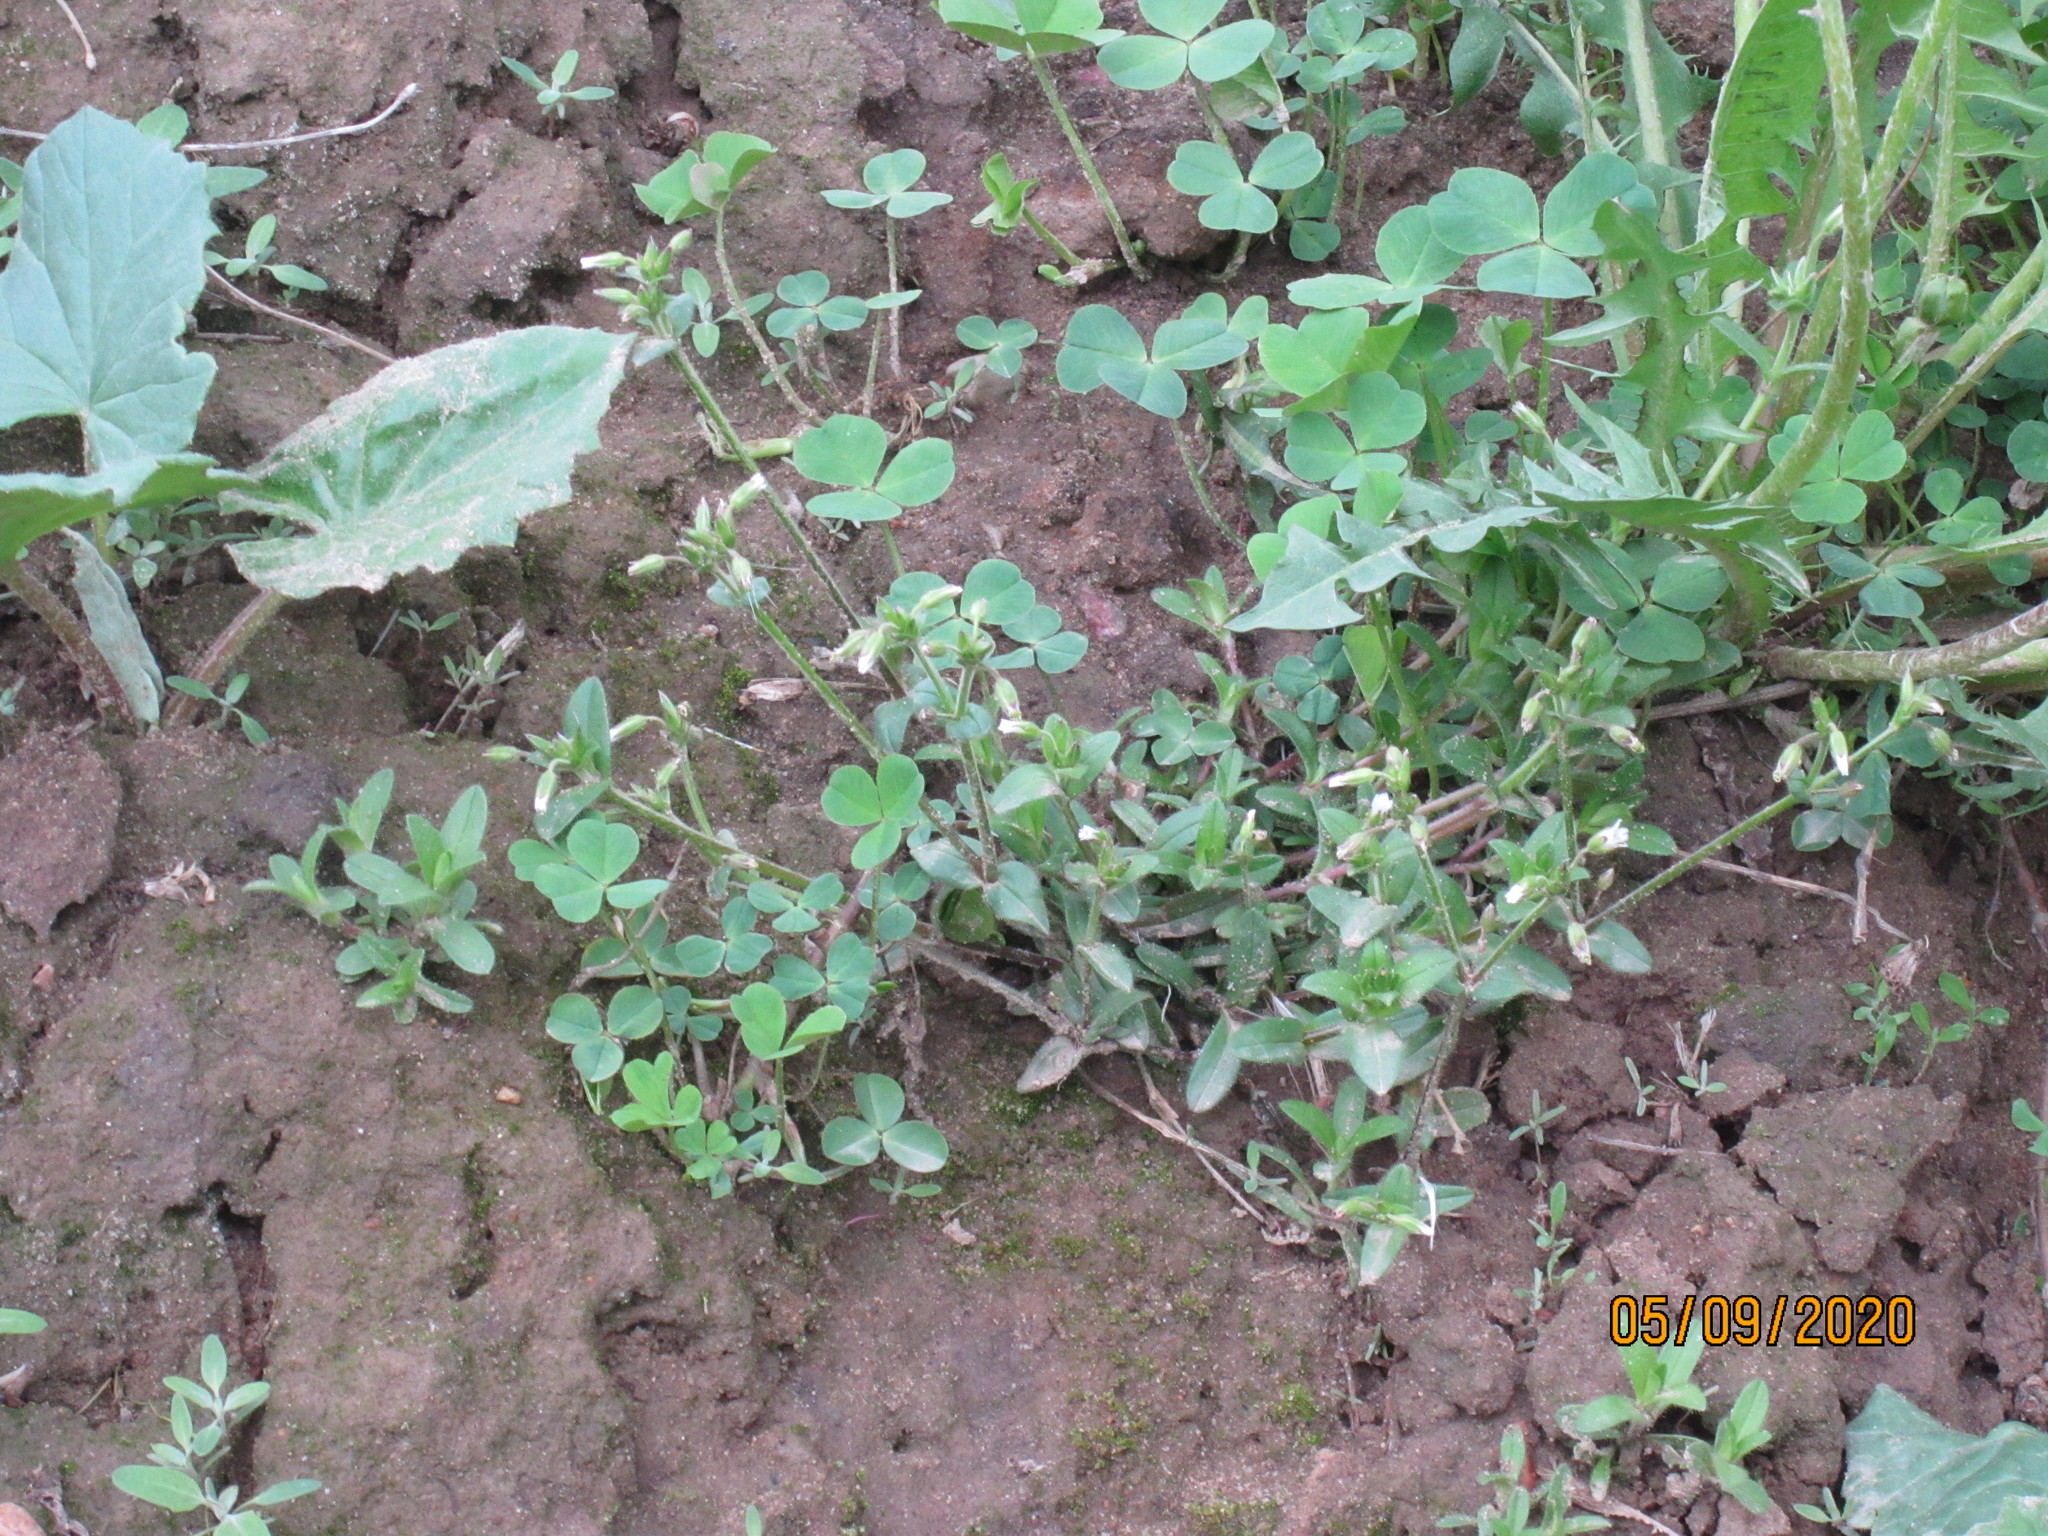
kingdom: Plantae
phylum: Tracheophyta
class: Magnoliopsida
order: Caryophyllales
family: Caryophyllaceae
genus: Cerastium
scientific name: Cerastium holosteoides
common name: Big chickweed
